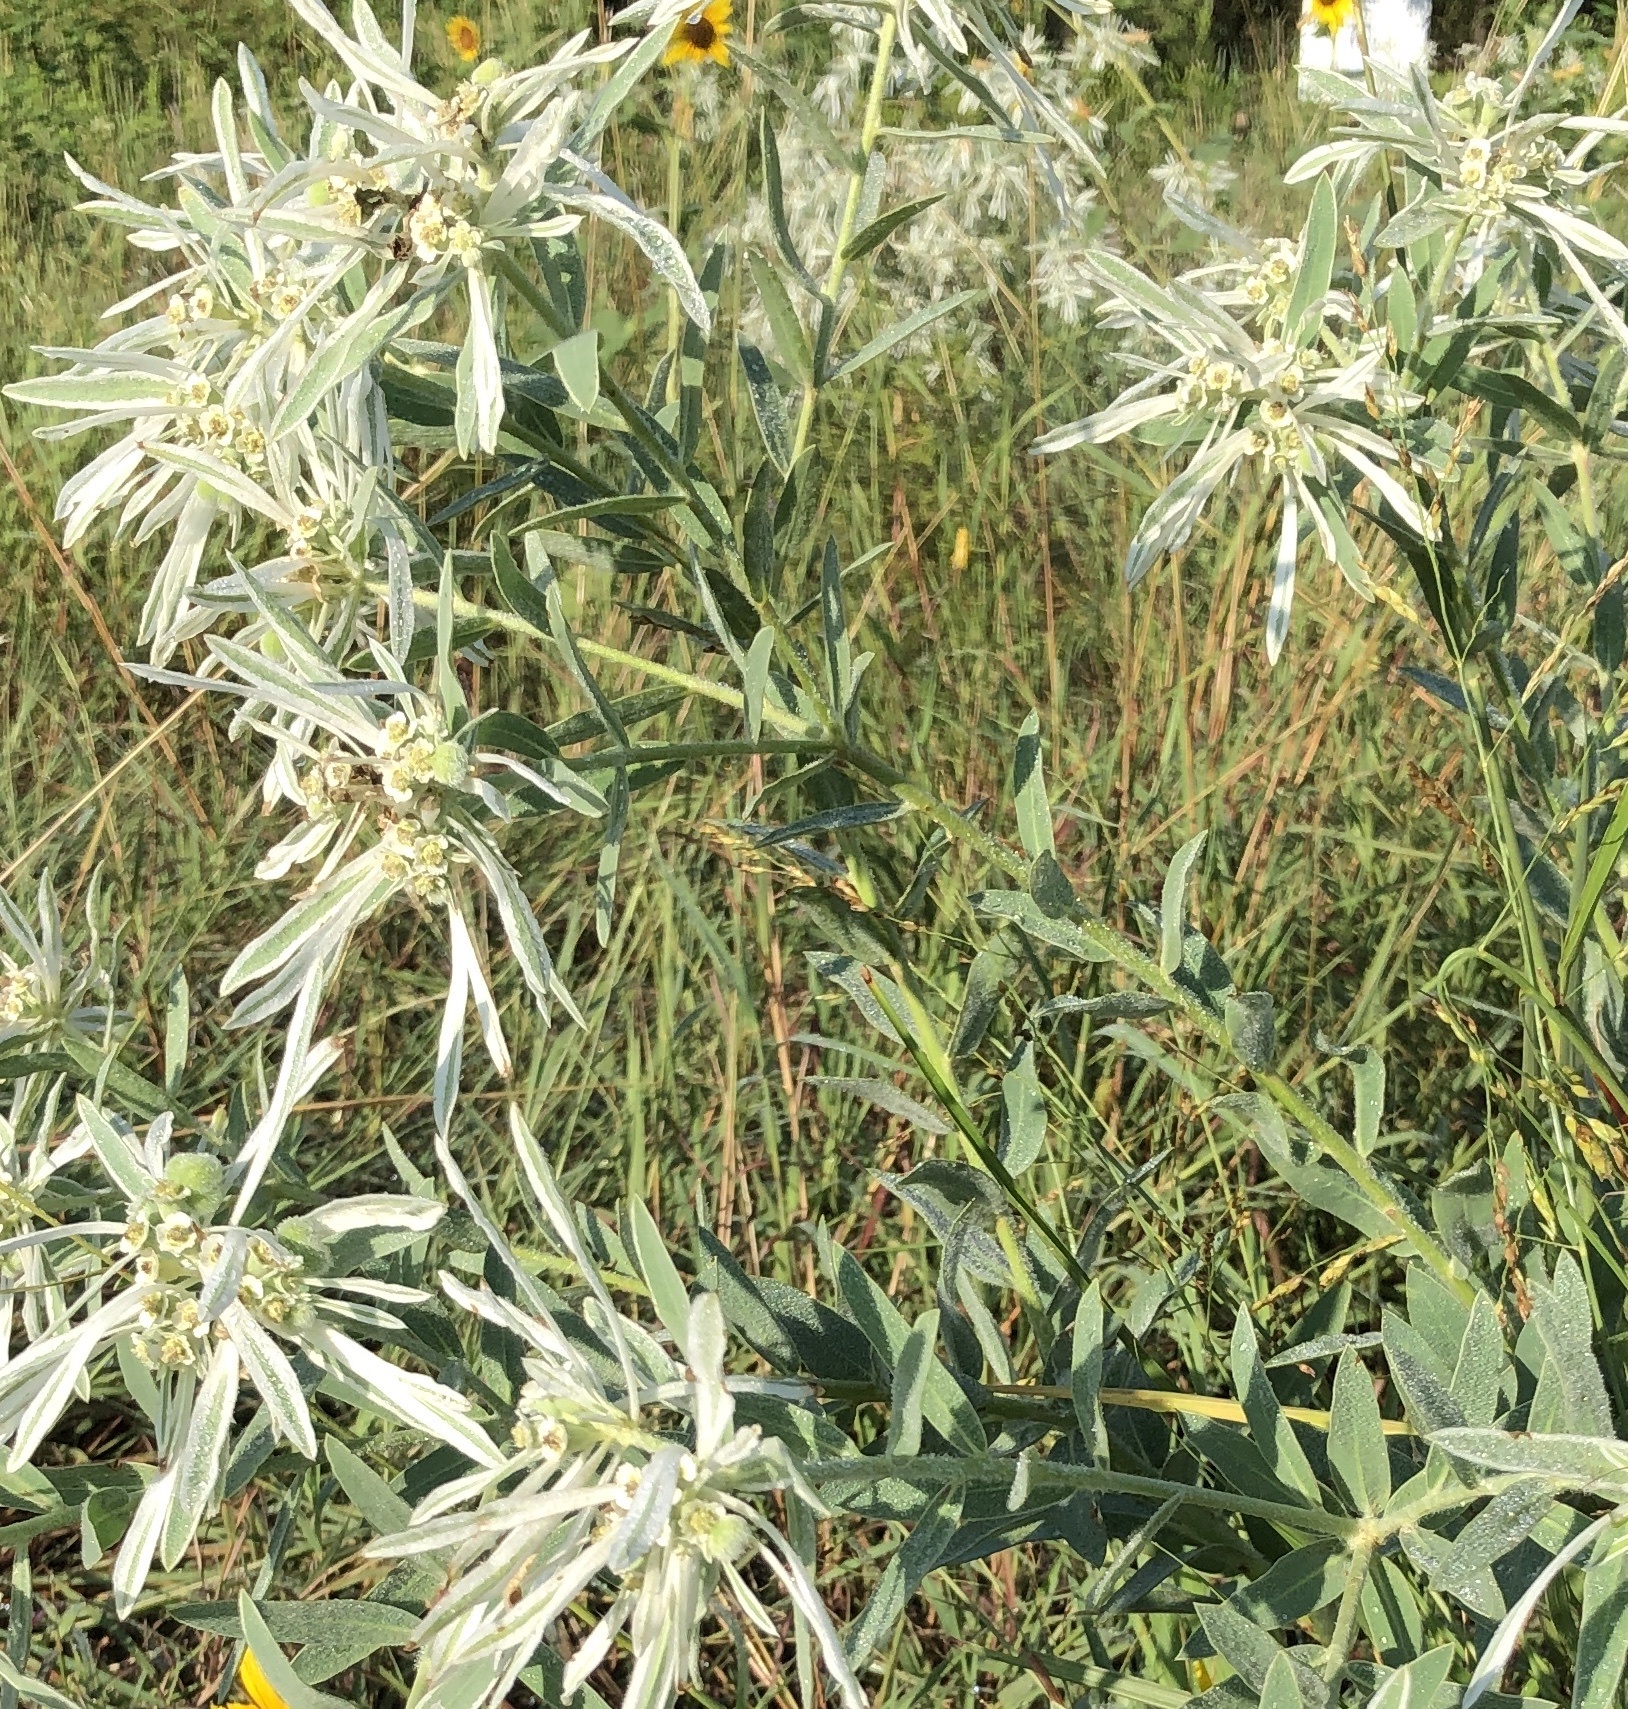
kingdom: Plantae
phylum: Tracheophyta
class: Magnoliopsida
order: Malpighiales
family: Euphorbiaceae
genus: Euphorbia
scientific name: Euphorbia bicolor
